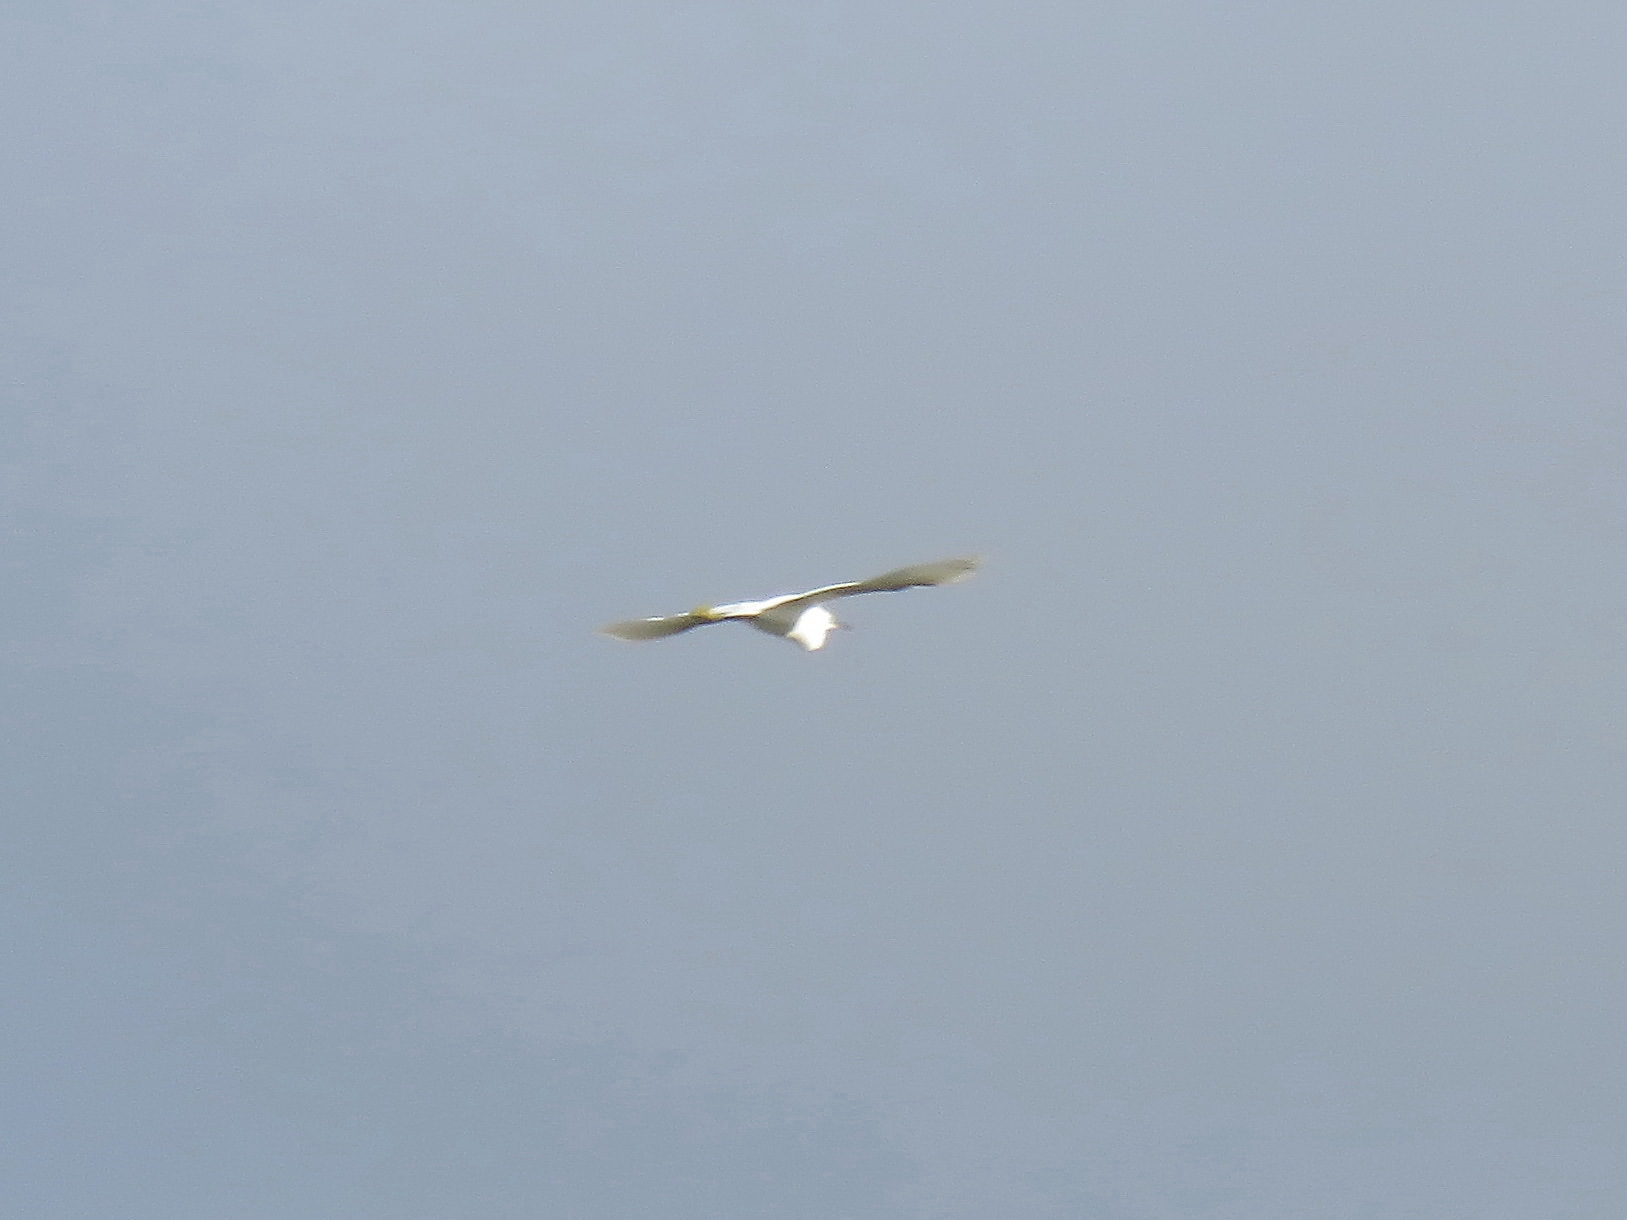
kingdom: Animalia
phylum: Chordata
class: Aves
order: Pelecaniformes
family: Ardeidae
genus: Egretta
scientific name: Egretta garzetta
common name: Little egret
